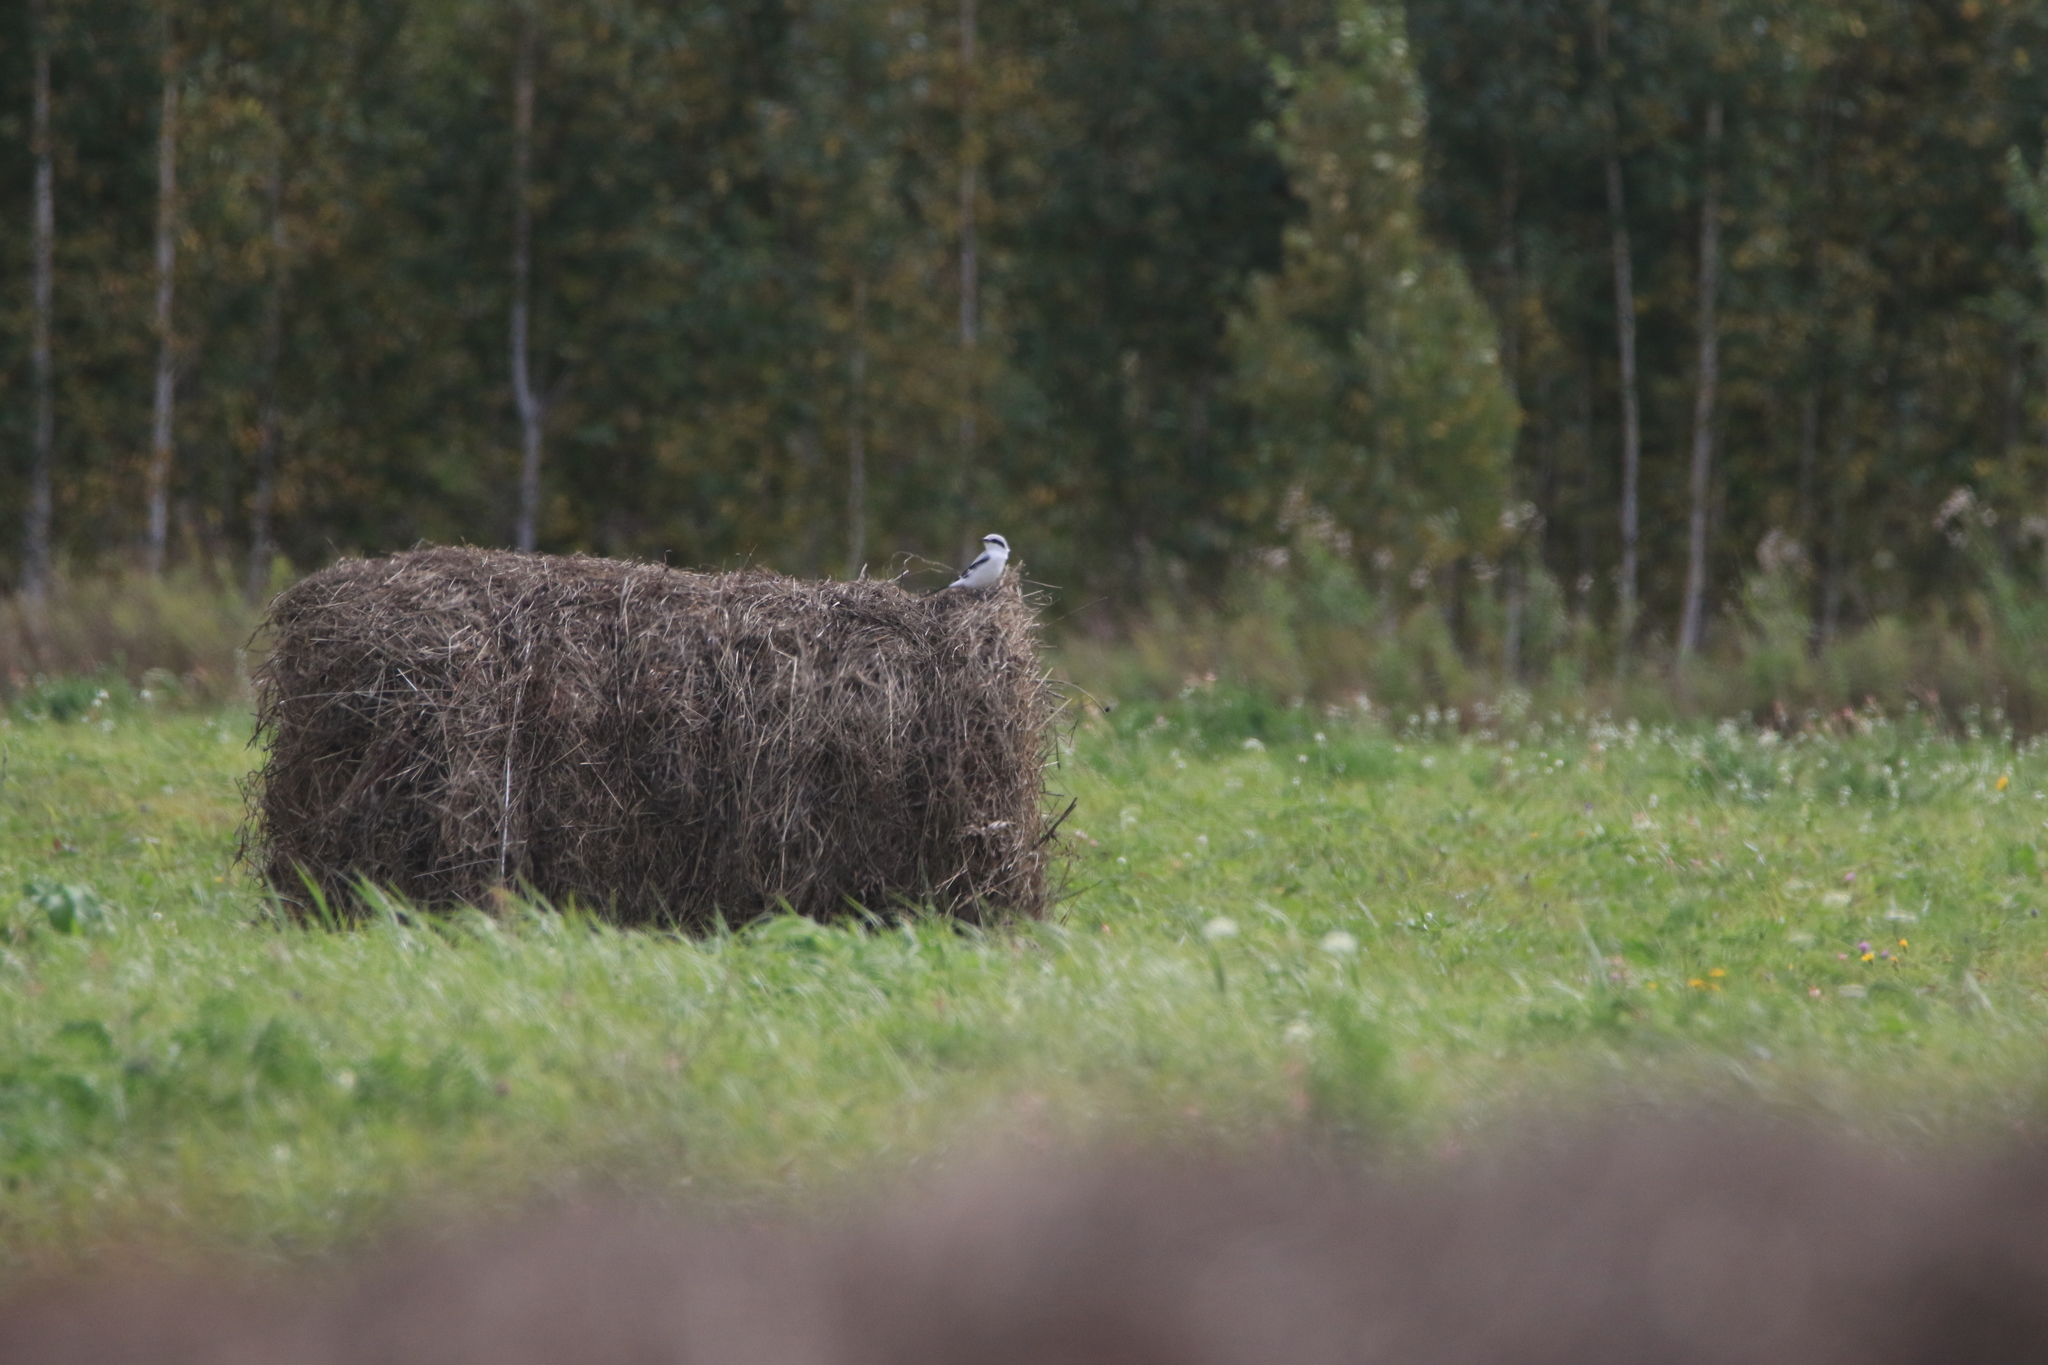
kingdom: Animalia
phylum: Chordata
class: Aves
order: Passeriformes
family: Laniidae
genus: Lanius
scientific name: Lanius excubitor
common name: Great grey shrike
